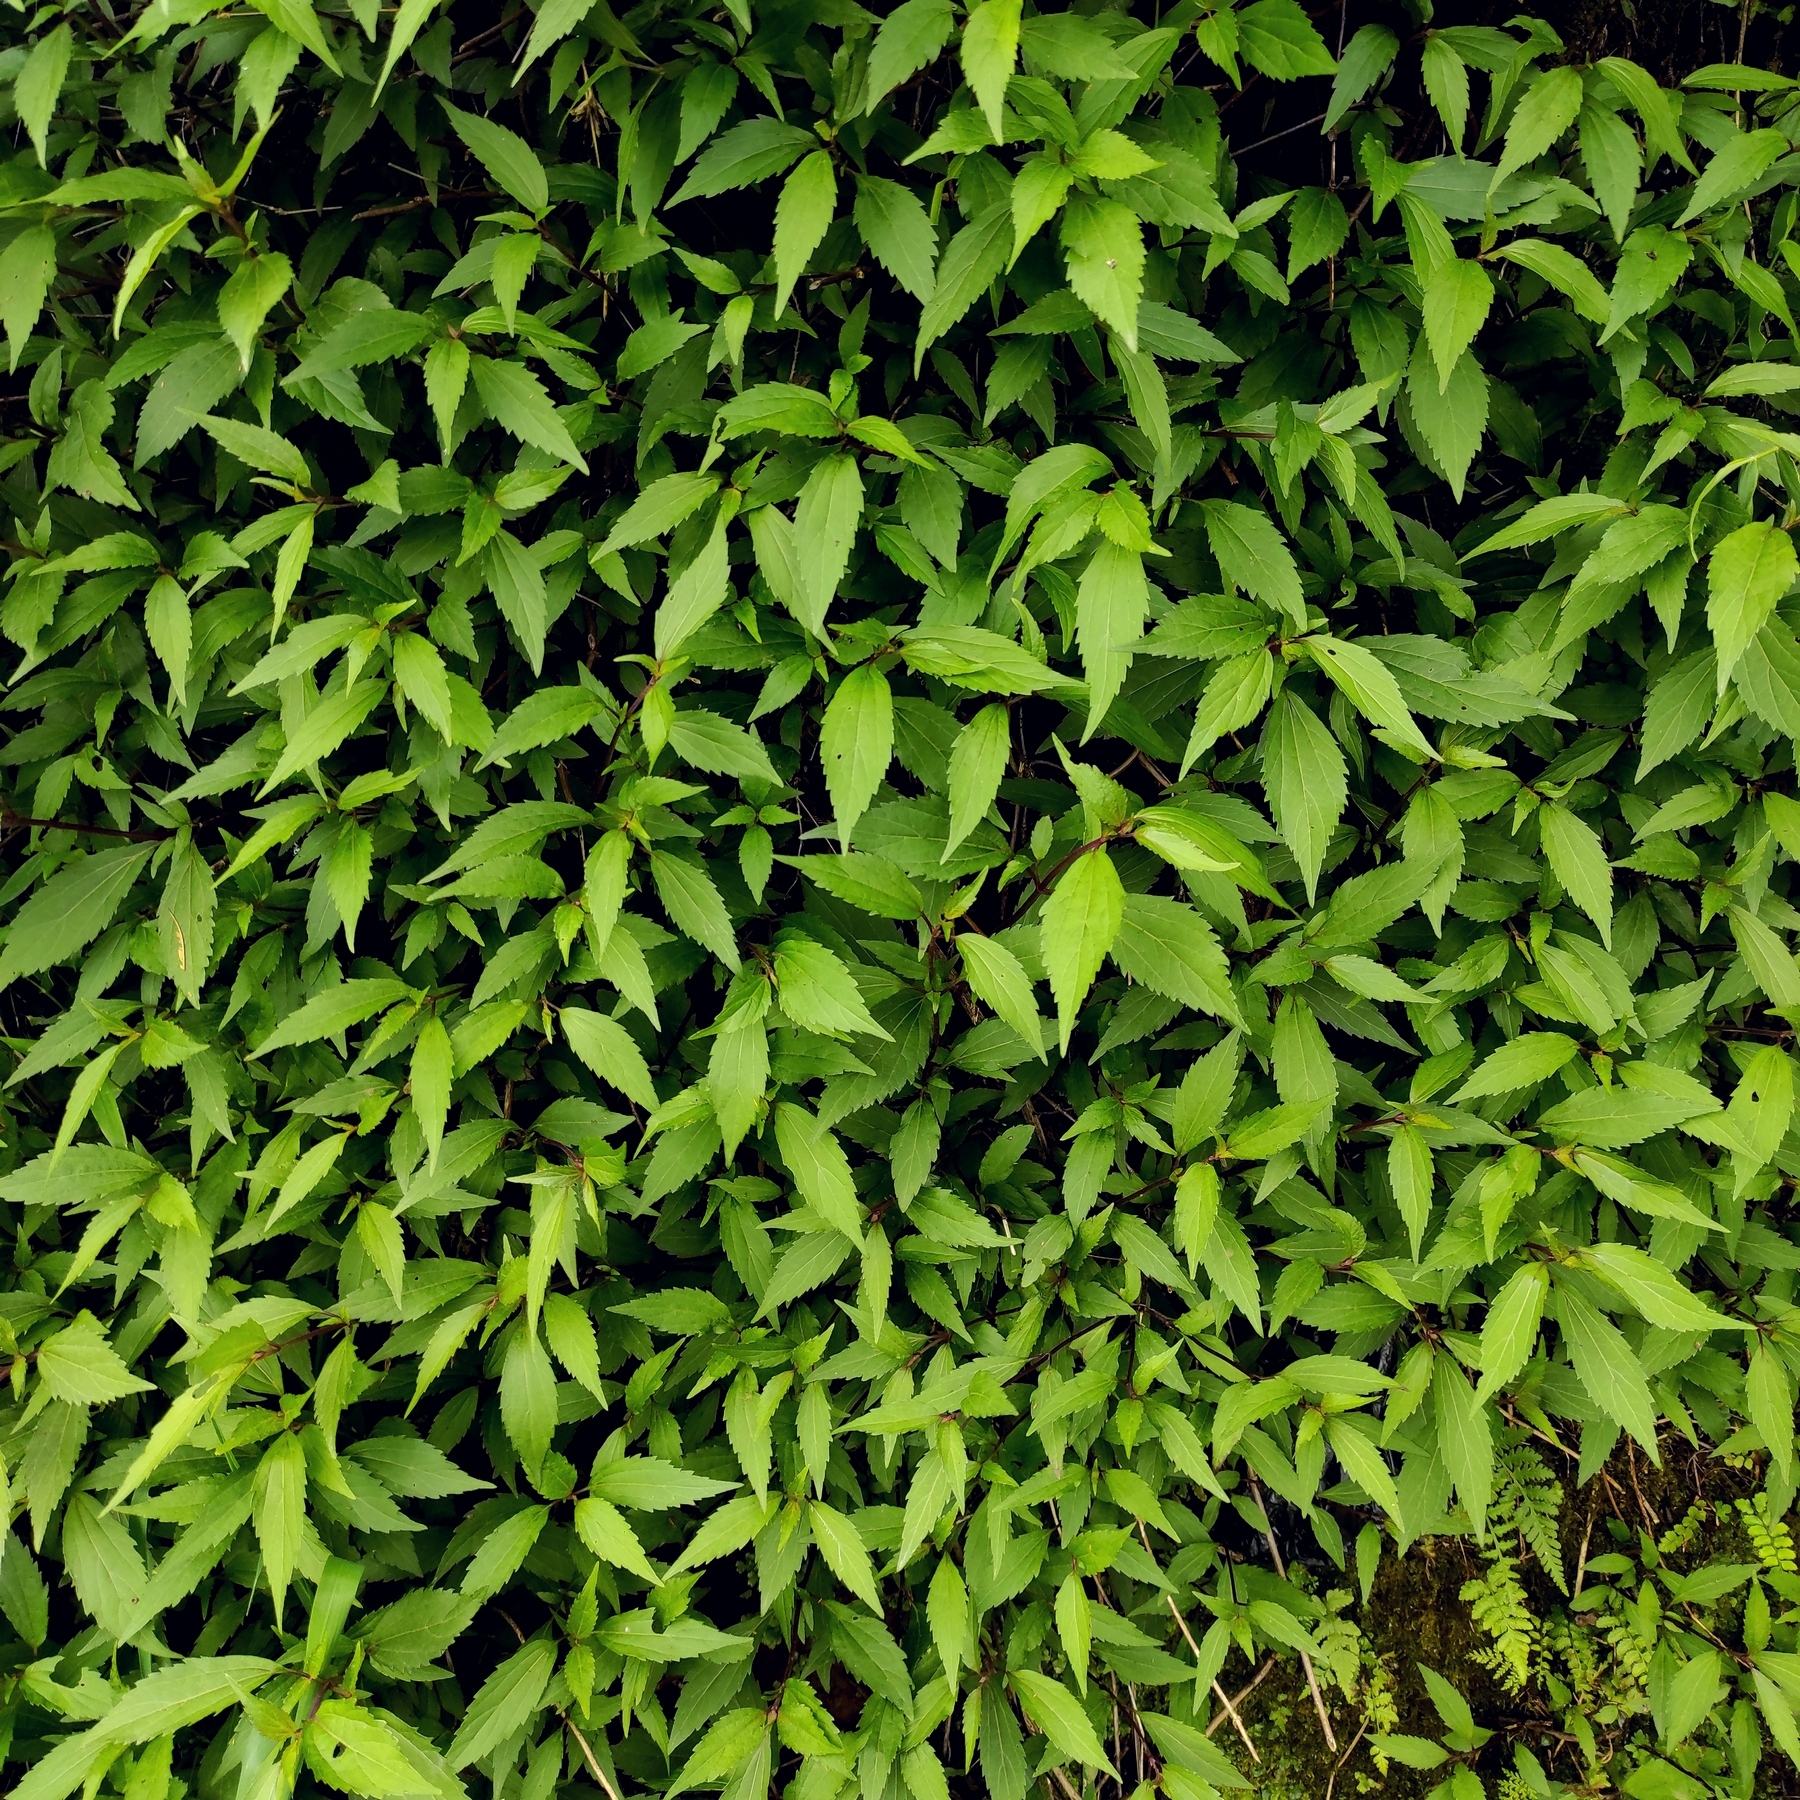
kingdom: Plantae
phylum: Tracheophyta
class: Magnoliopsida
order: Asterales
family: Asteraceae
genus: Ageratina
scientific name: Ageratina riparia
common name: Creeping croftonweed
